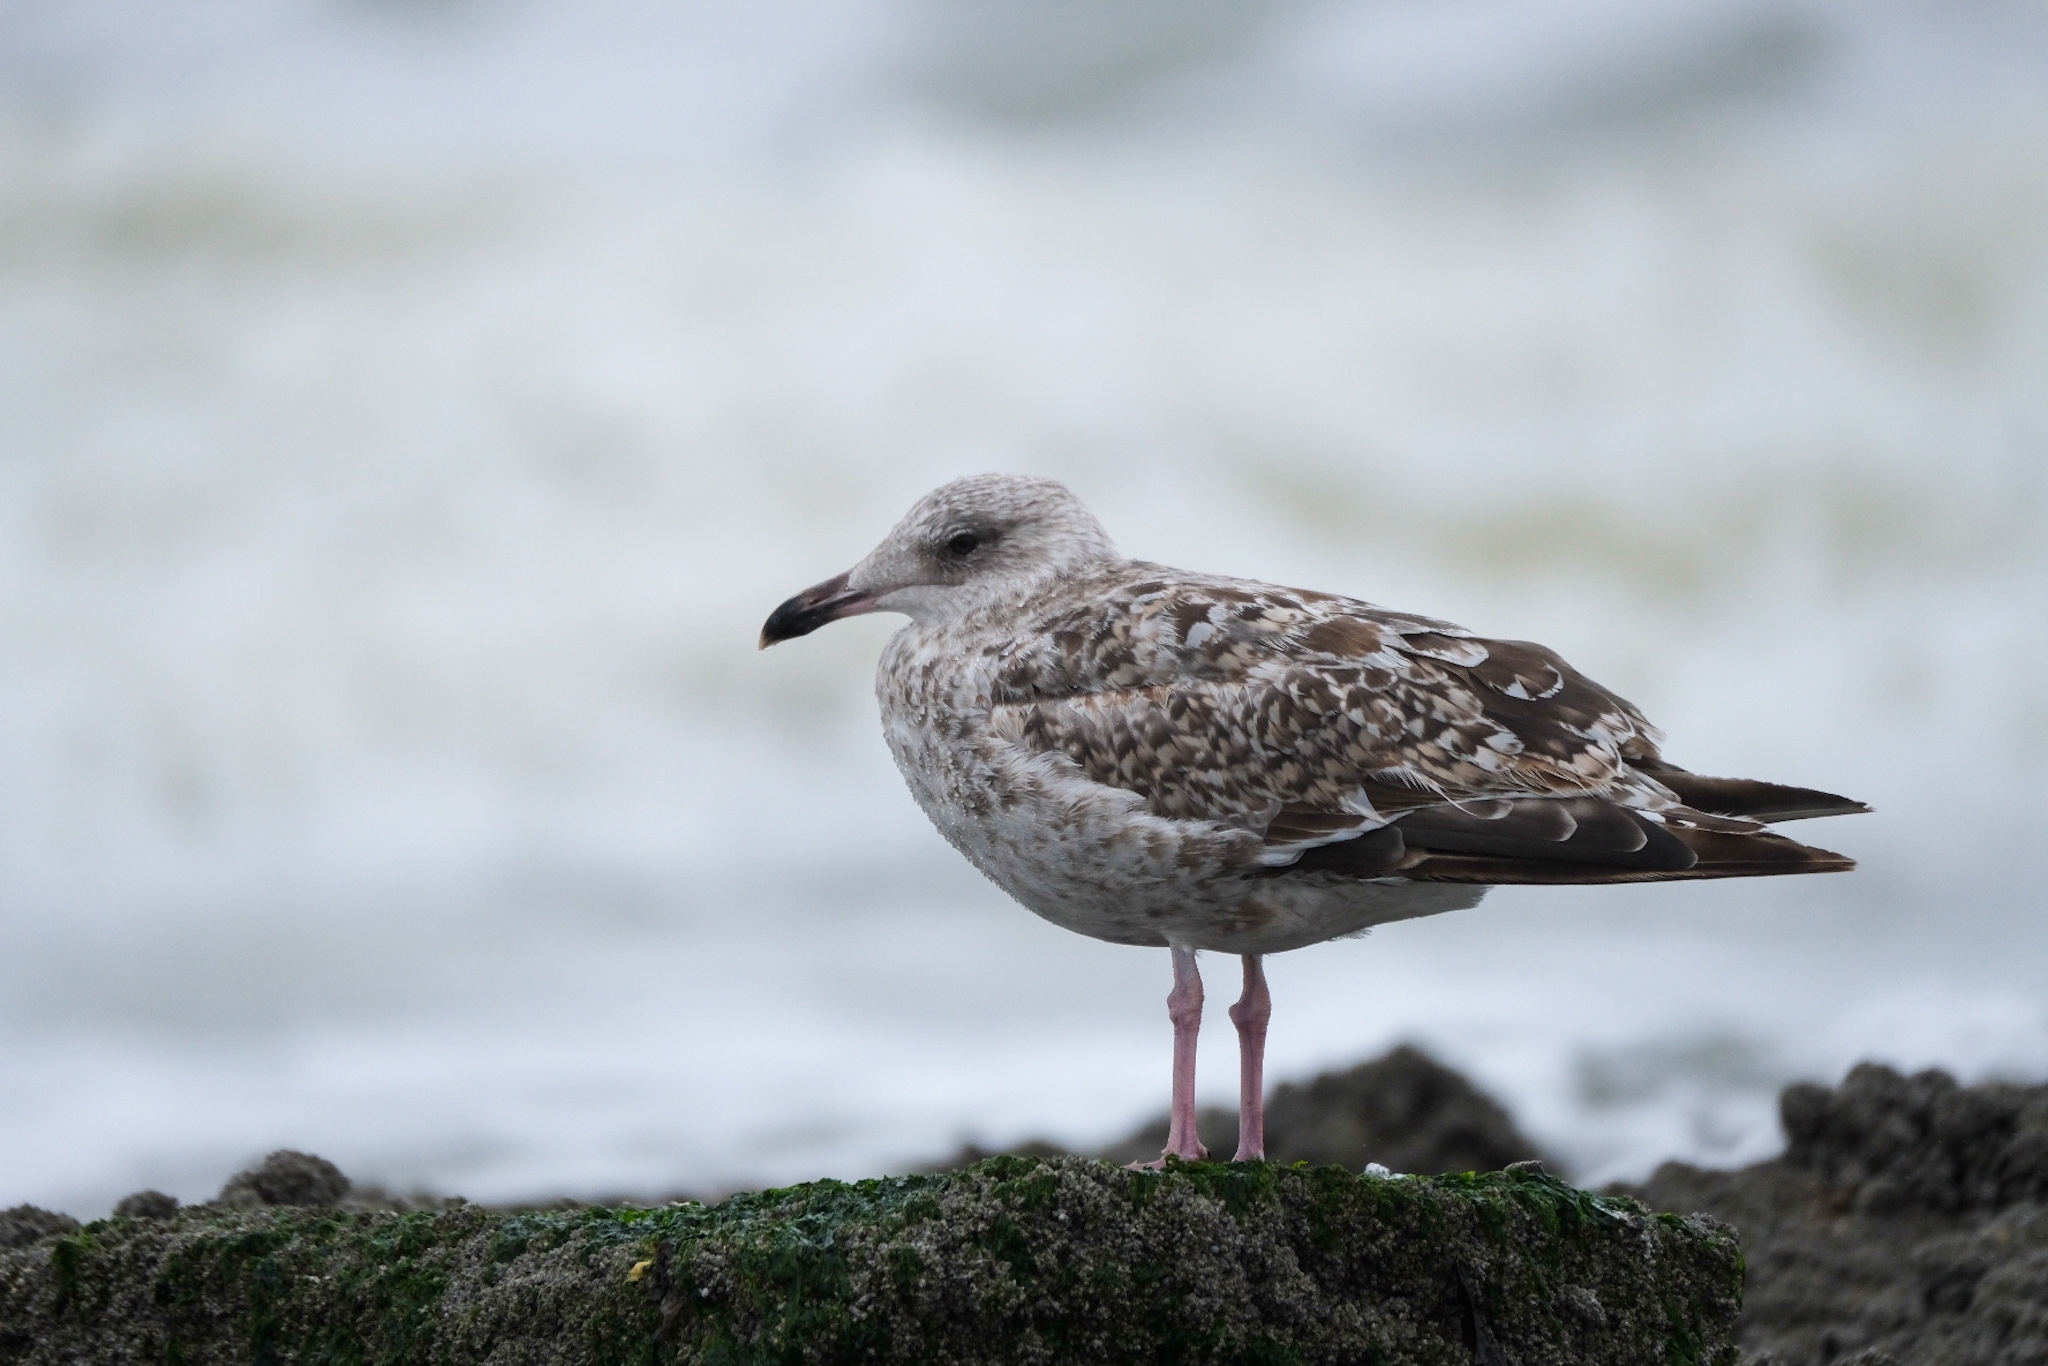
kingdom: Animalia
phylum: Chordata
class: Aves
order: Charadriiformes
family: Laridae
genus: Larus
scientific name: Larus argentatus
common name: Herring gull
